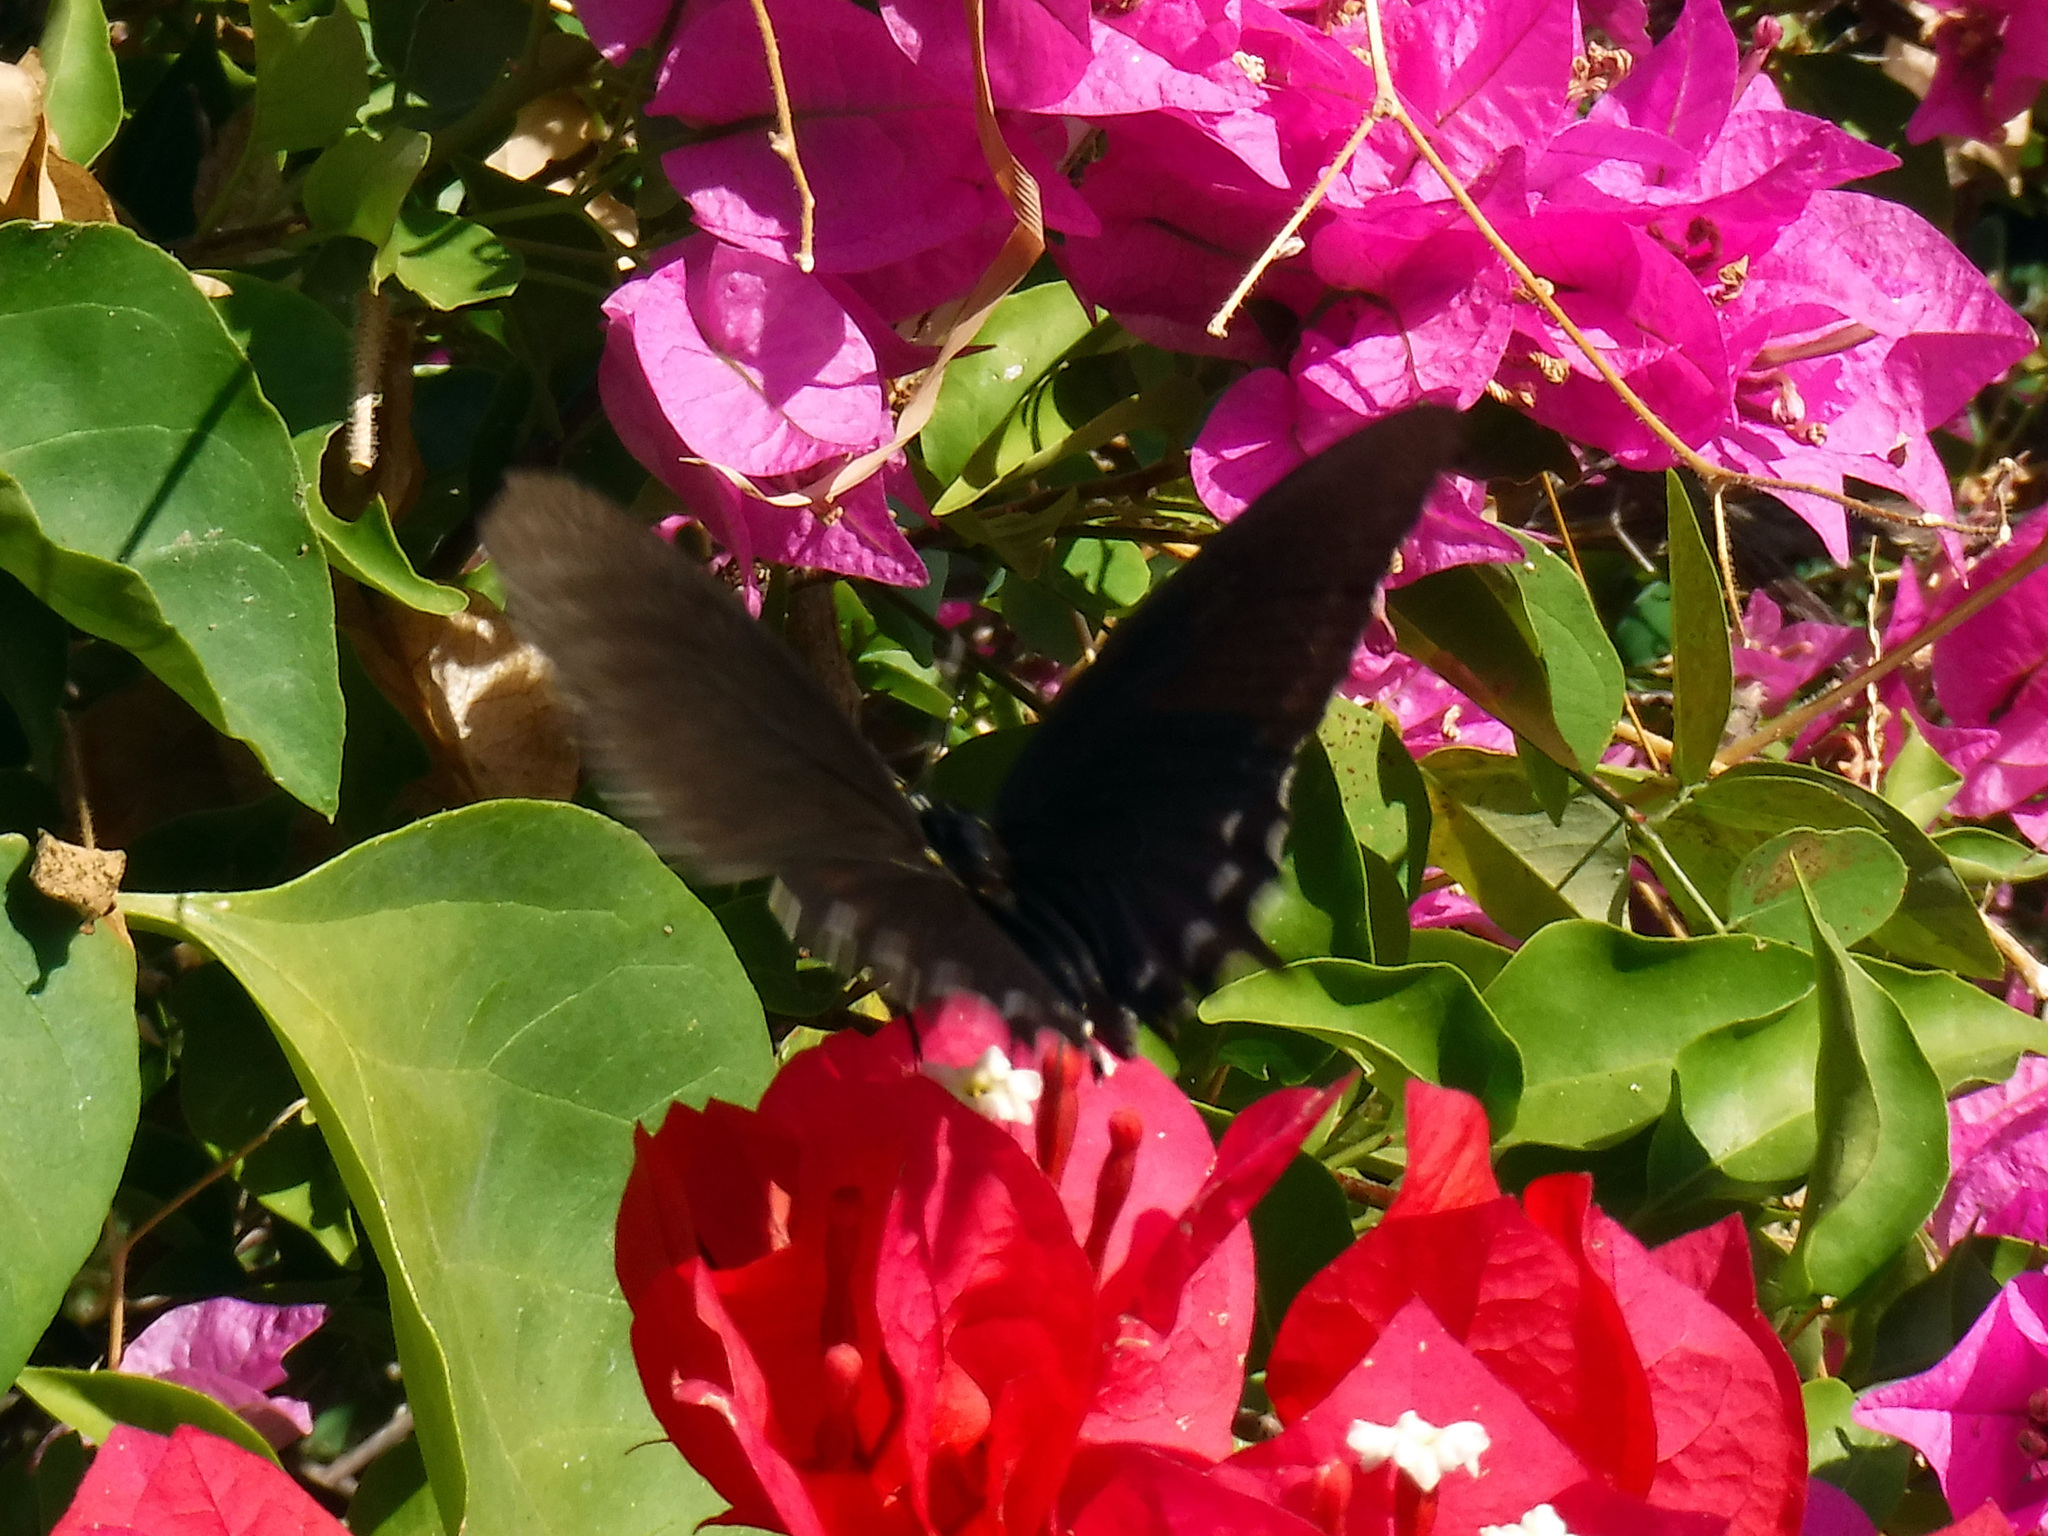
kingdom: Animalia
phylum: Arthropoda
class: Insecta
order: Lepidoptera
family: Papilionidae
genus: Battus
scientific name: Battus philenor
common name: Pipevine swallowtail
